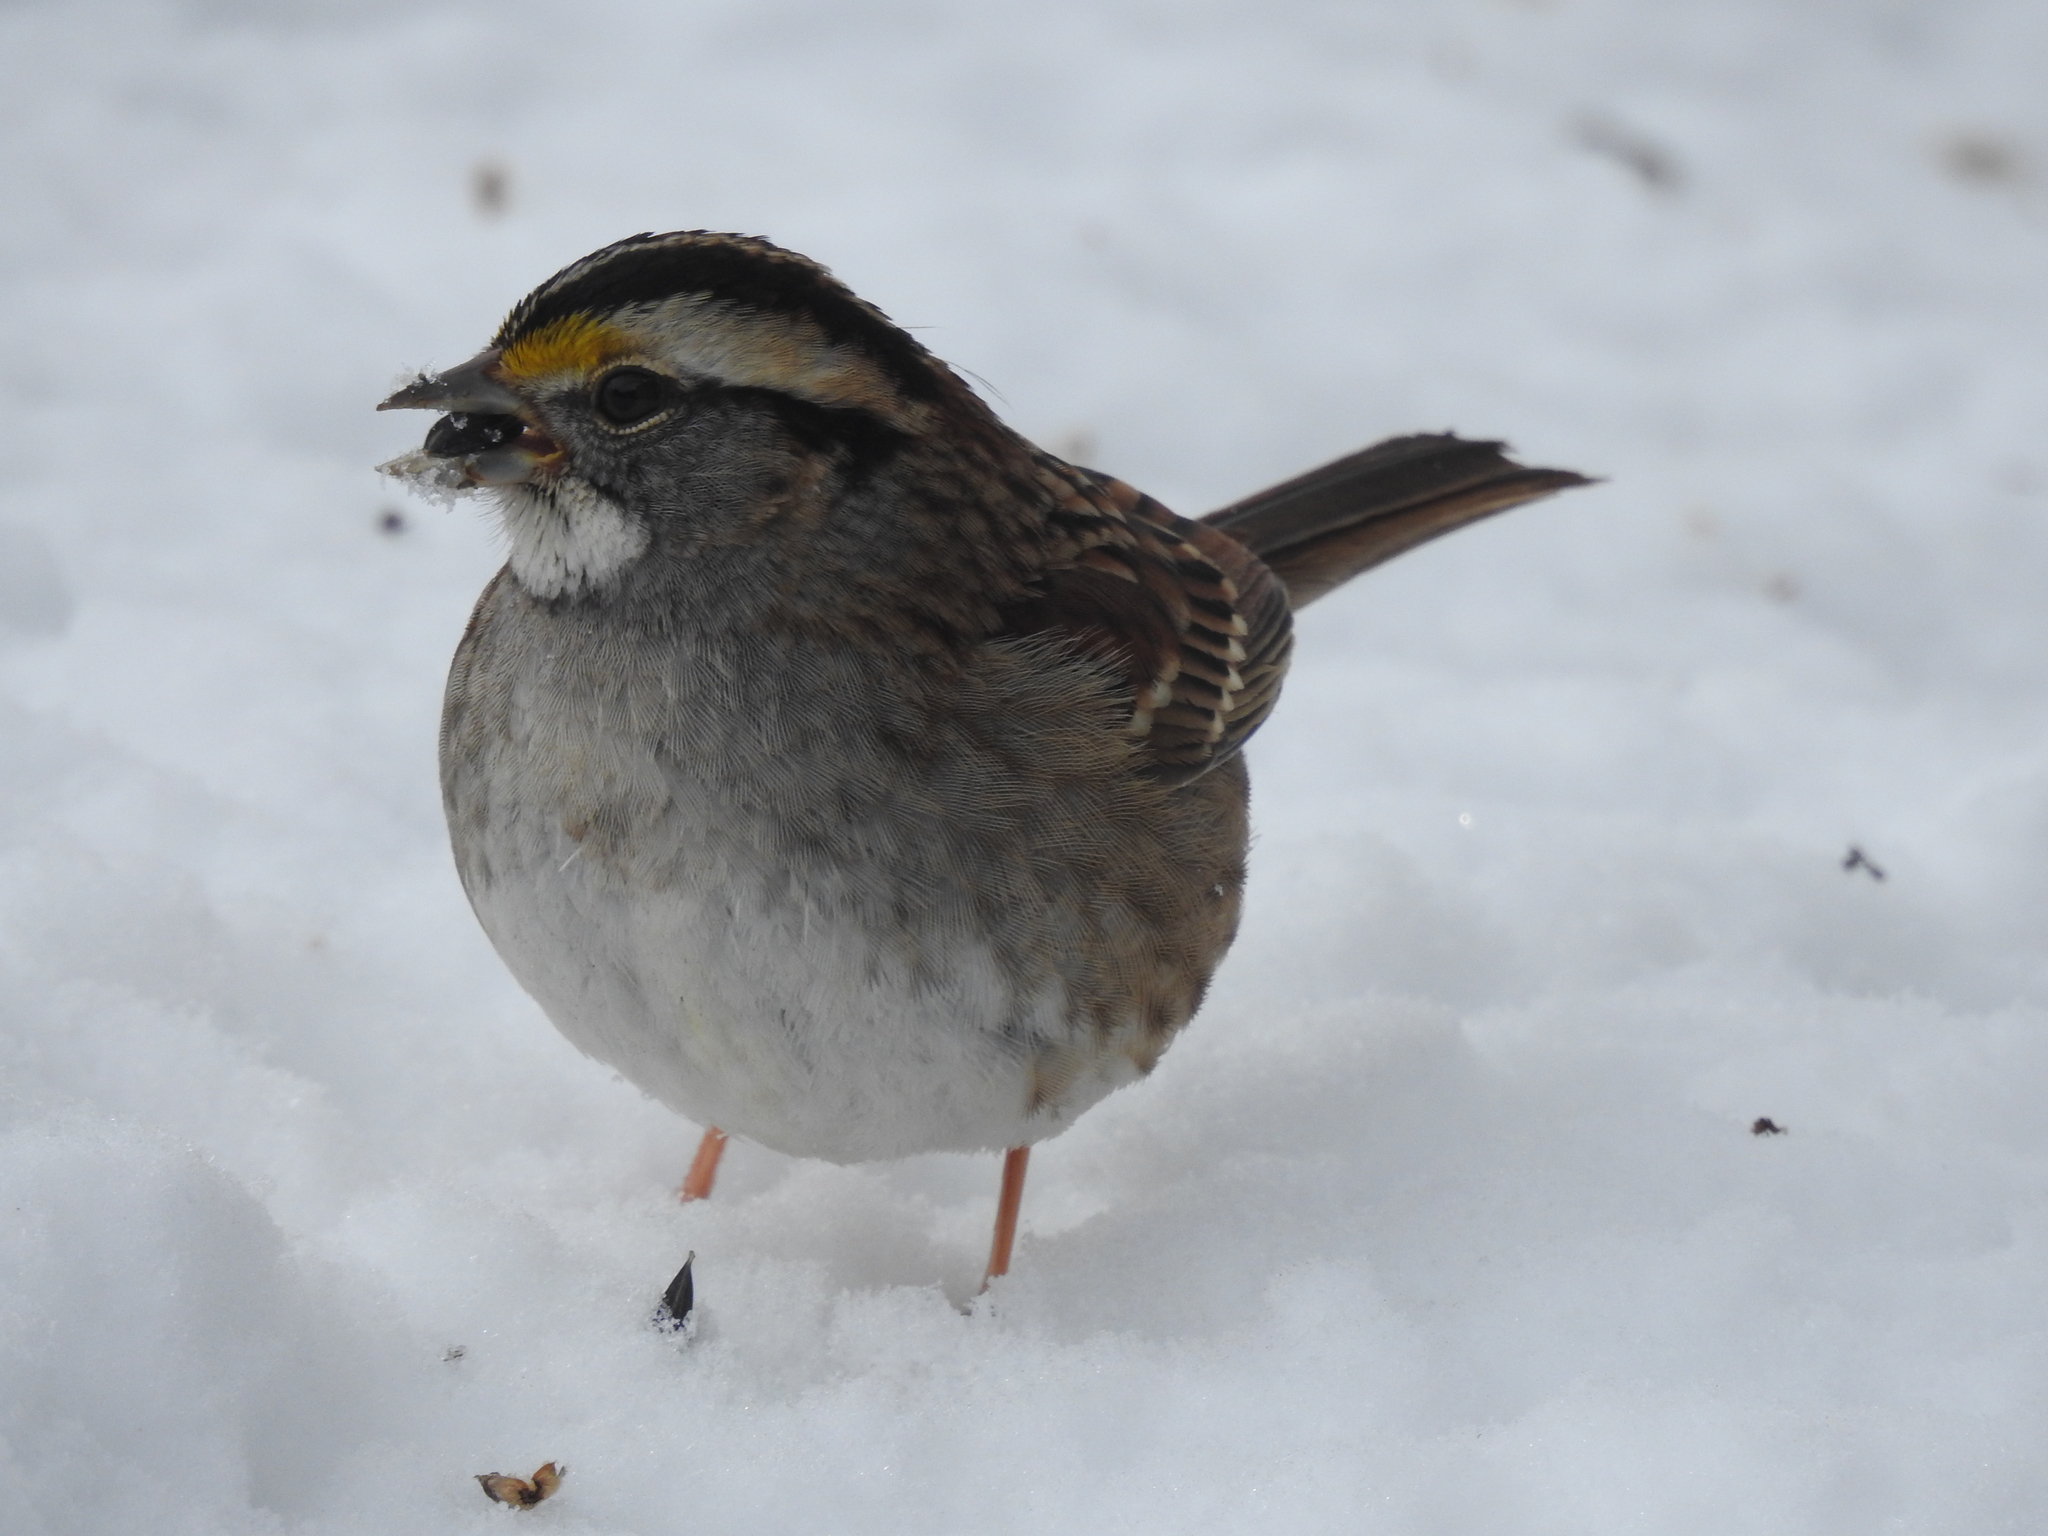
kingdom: Animalia
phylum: Chordata
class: Aves
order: Passeriformes
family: Passerellidae
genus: Zonotrichia
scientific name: Zonotrichia albicollis
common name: White-throated sparrow
